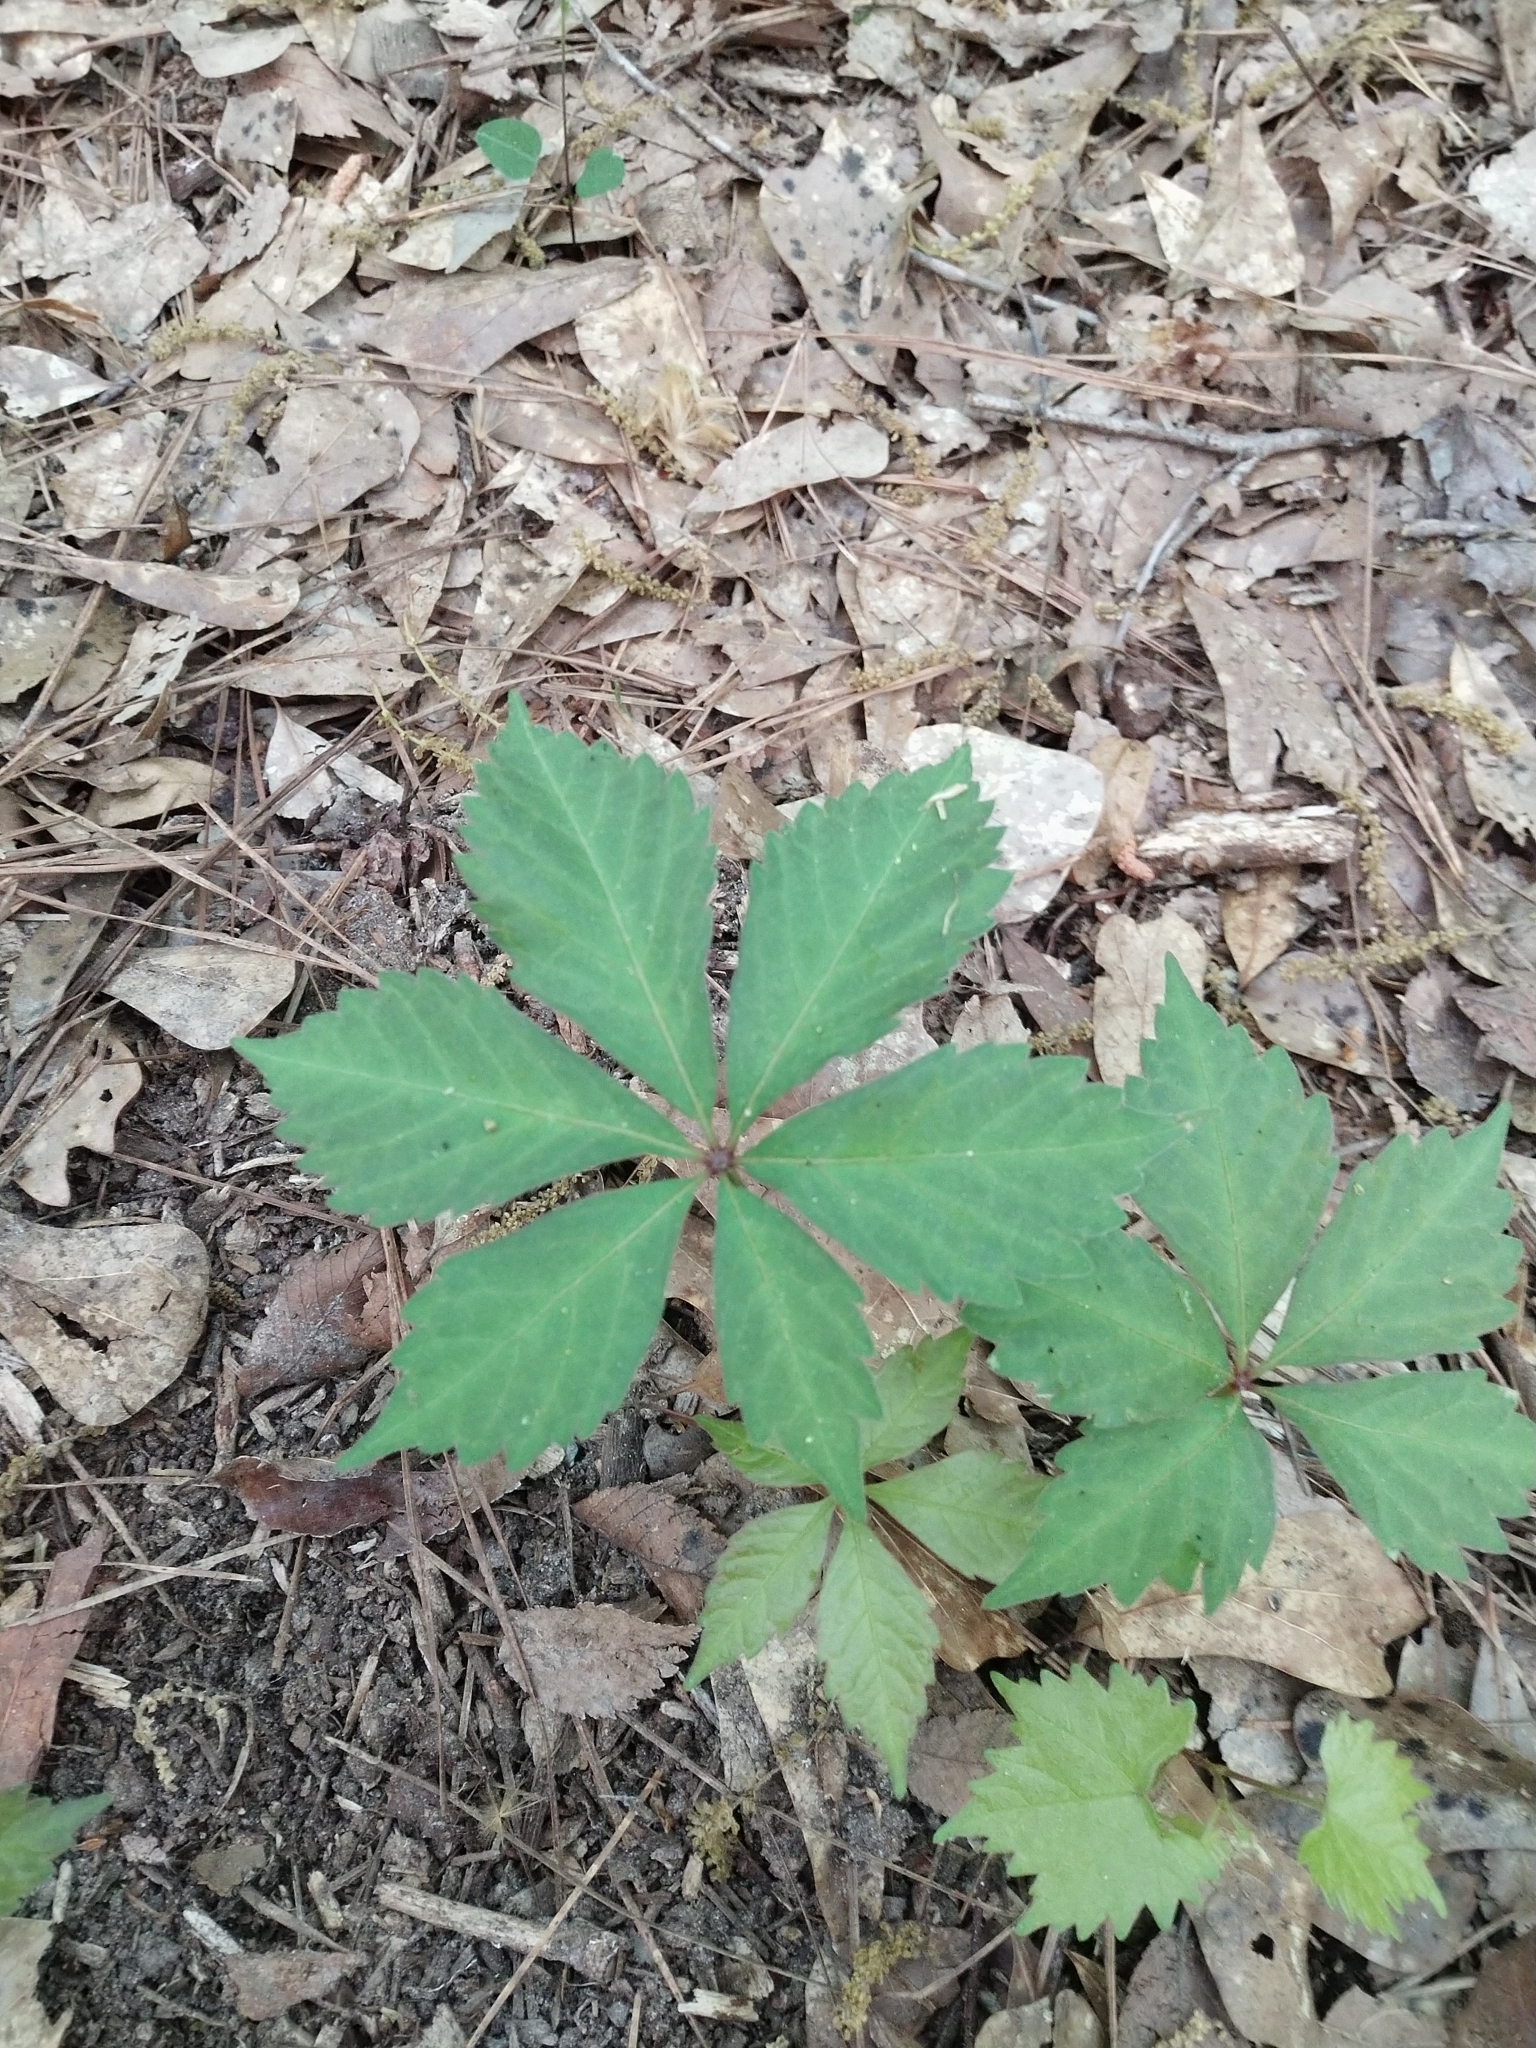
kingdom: Plantae
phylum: Tracheophyta
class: Magnoliopsida
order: Vitales
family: Vitaceae
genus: Parthenocissus
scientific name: Parthenocissus quinquefolia
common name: Virginia-creeper
